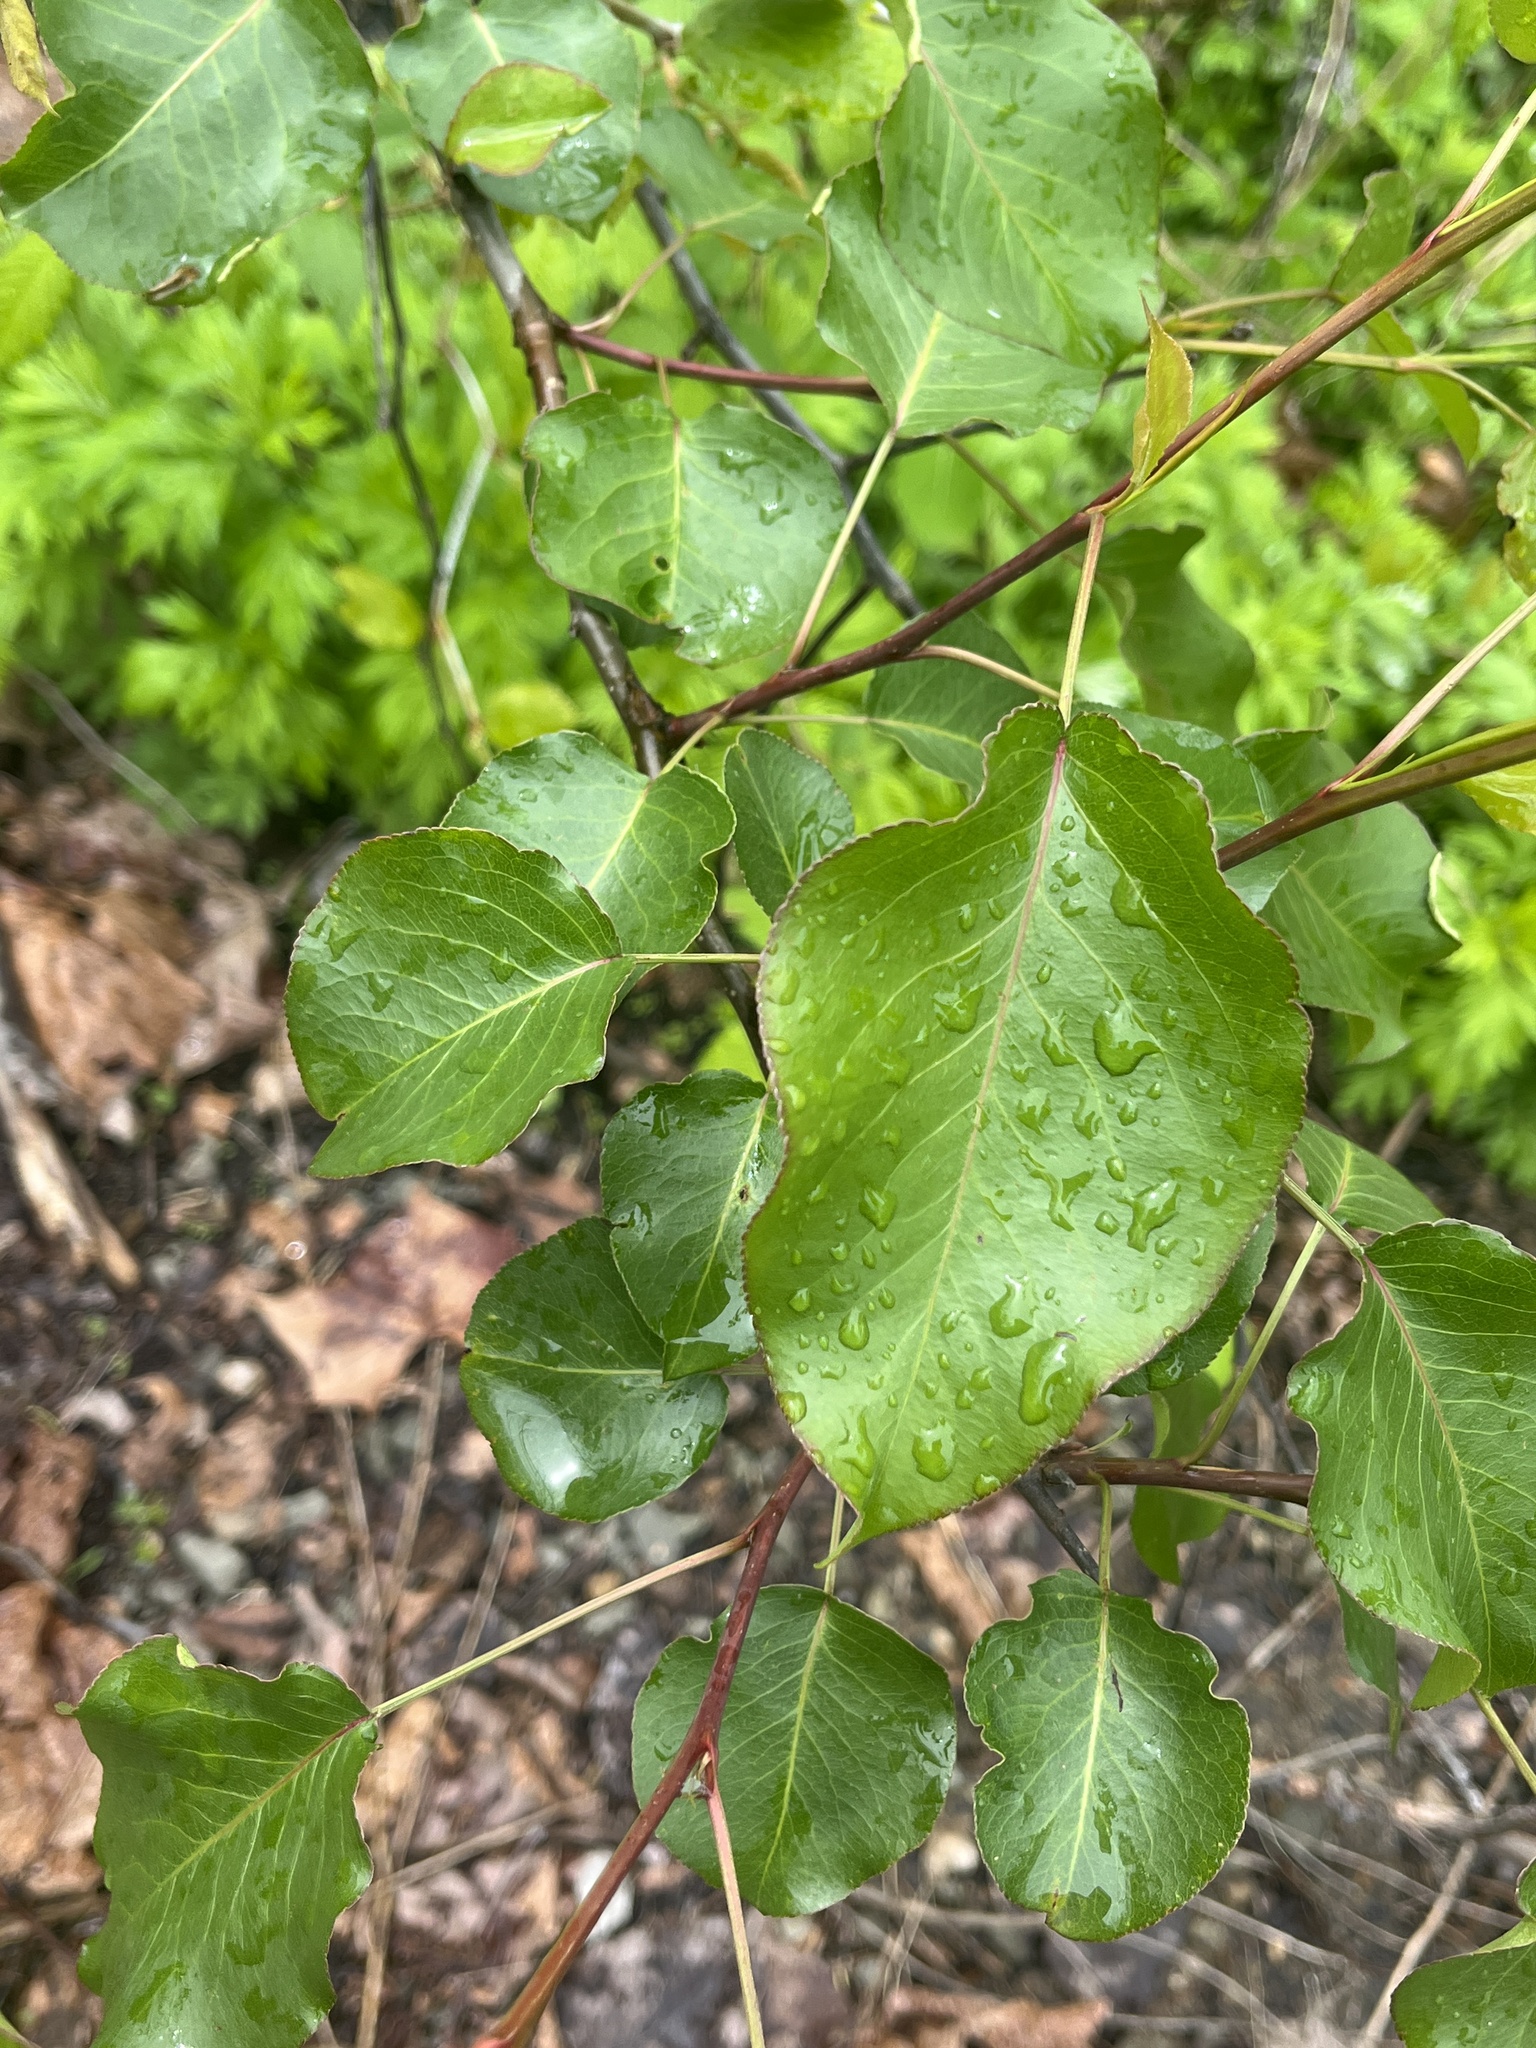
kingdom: Plantae
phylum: Tracheophyta
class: Magnoliopsida
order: Rosales
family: Rosaceae
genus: Pyrus
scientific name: Pyrus calleryana
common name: Callery pear
